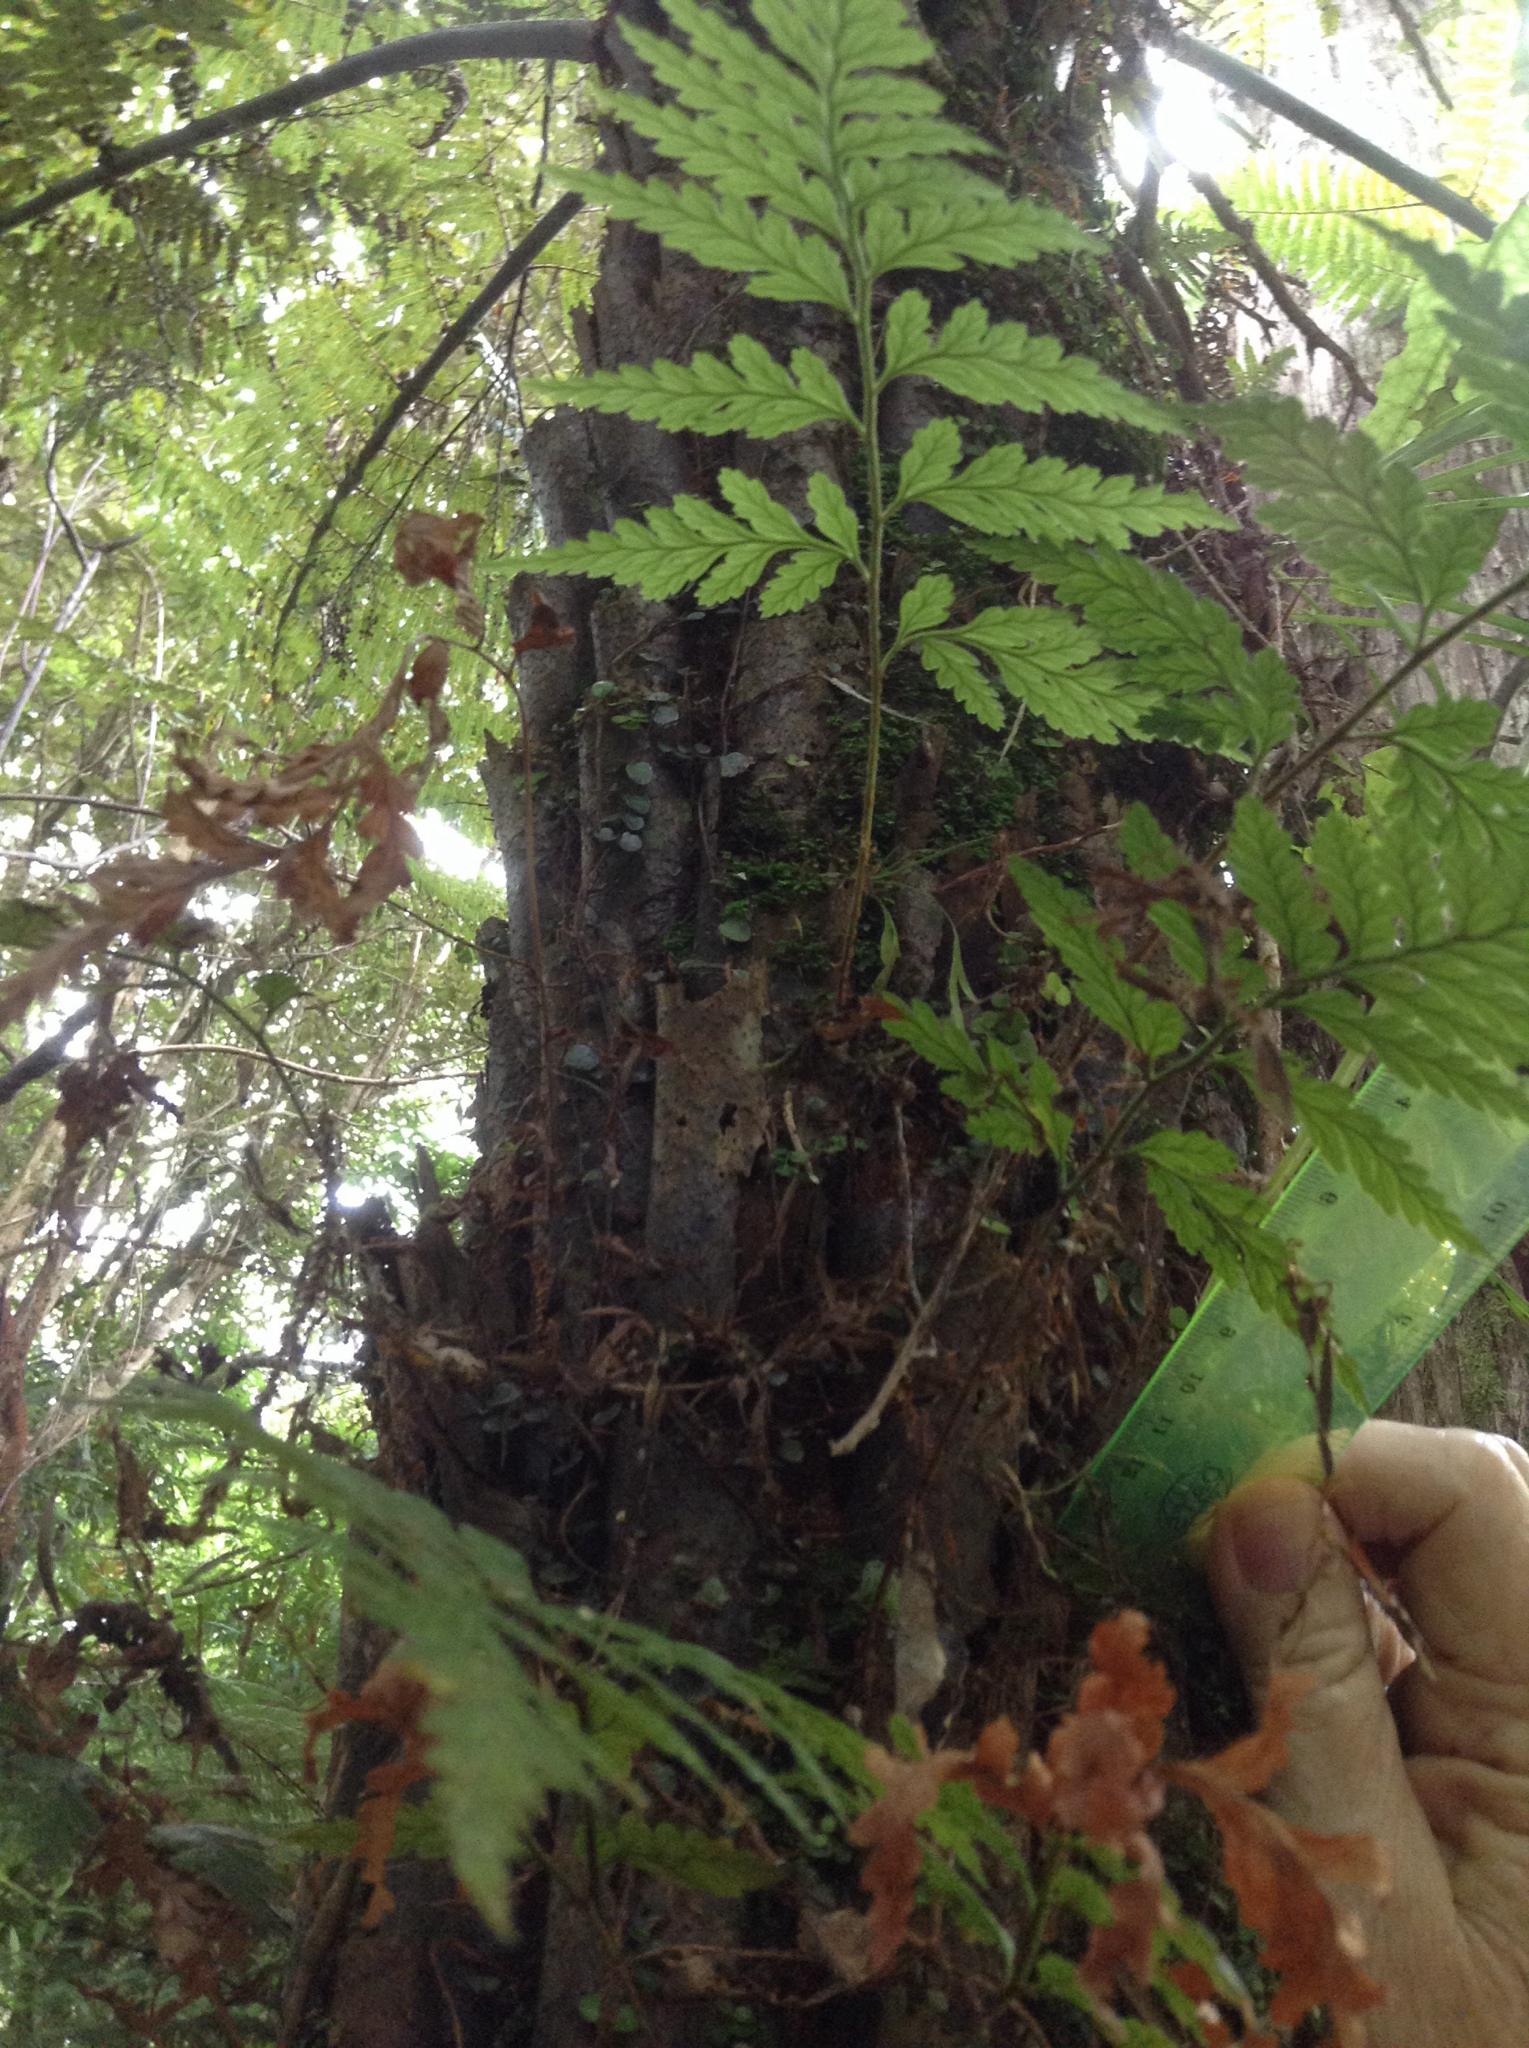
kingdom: Plantae
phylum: Tracheophyta
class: Polypodiopsida
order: Polypodiales
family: Dryopteridaceae
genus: Rumohra
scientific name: Rumohra adiantiformis
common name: Leather fern
